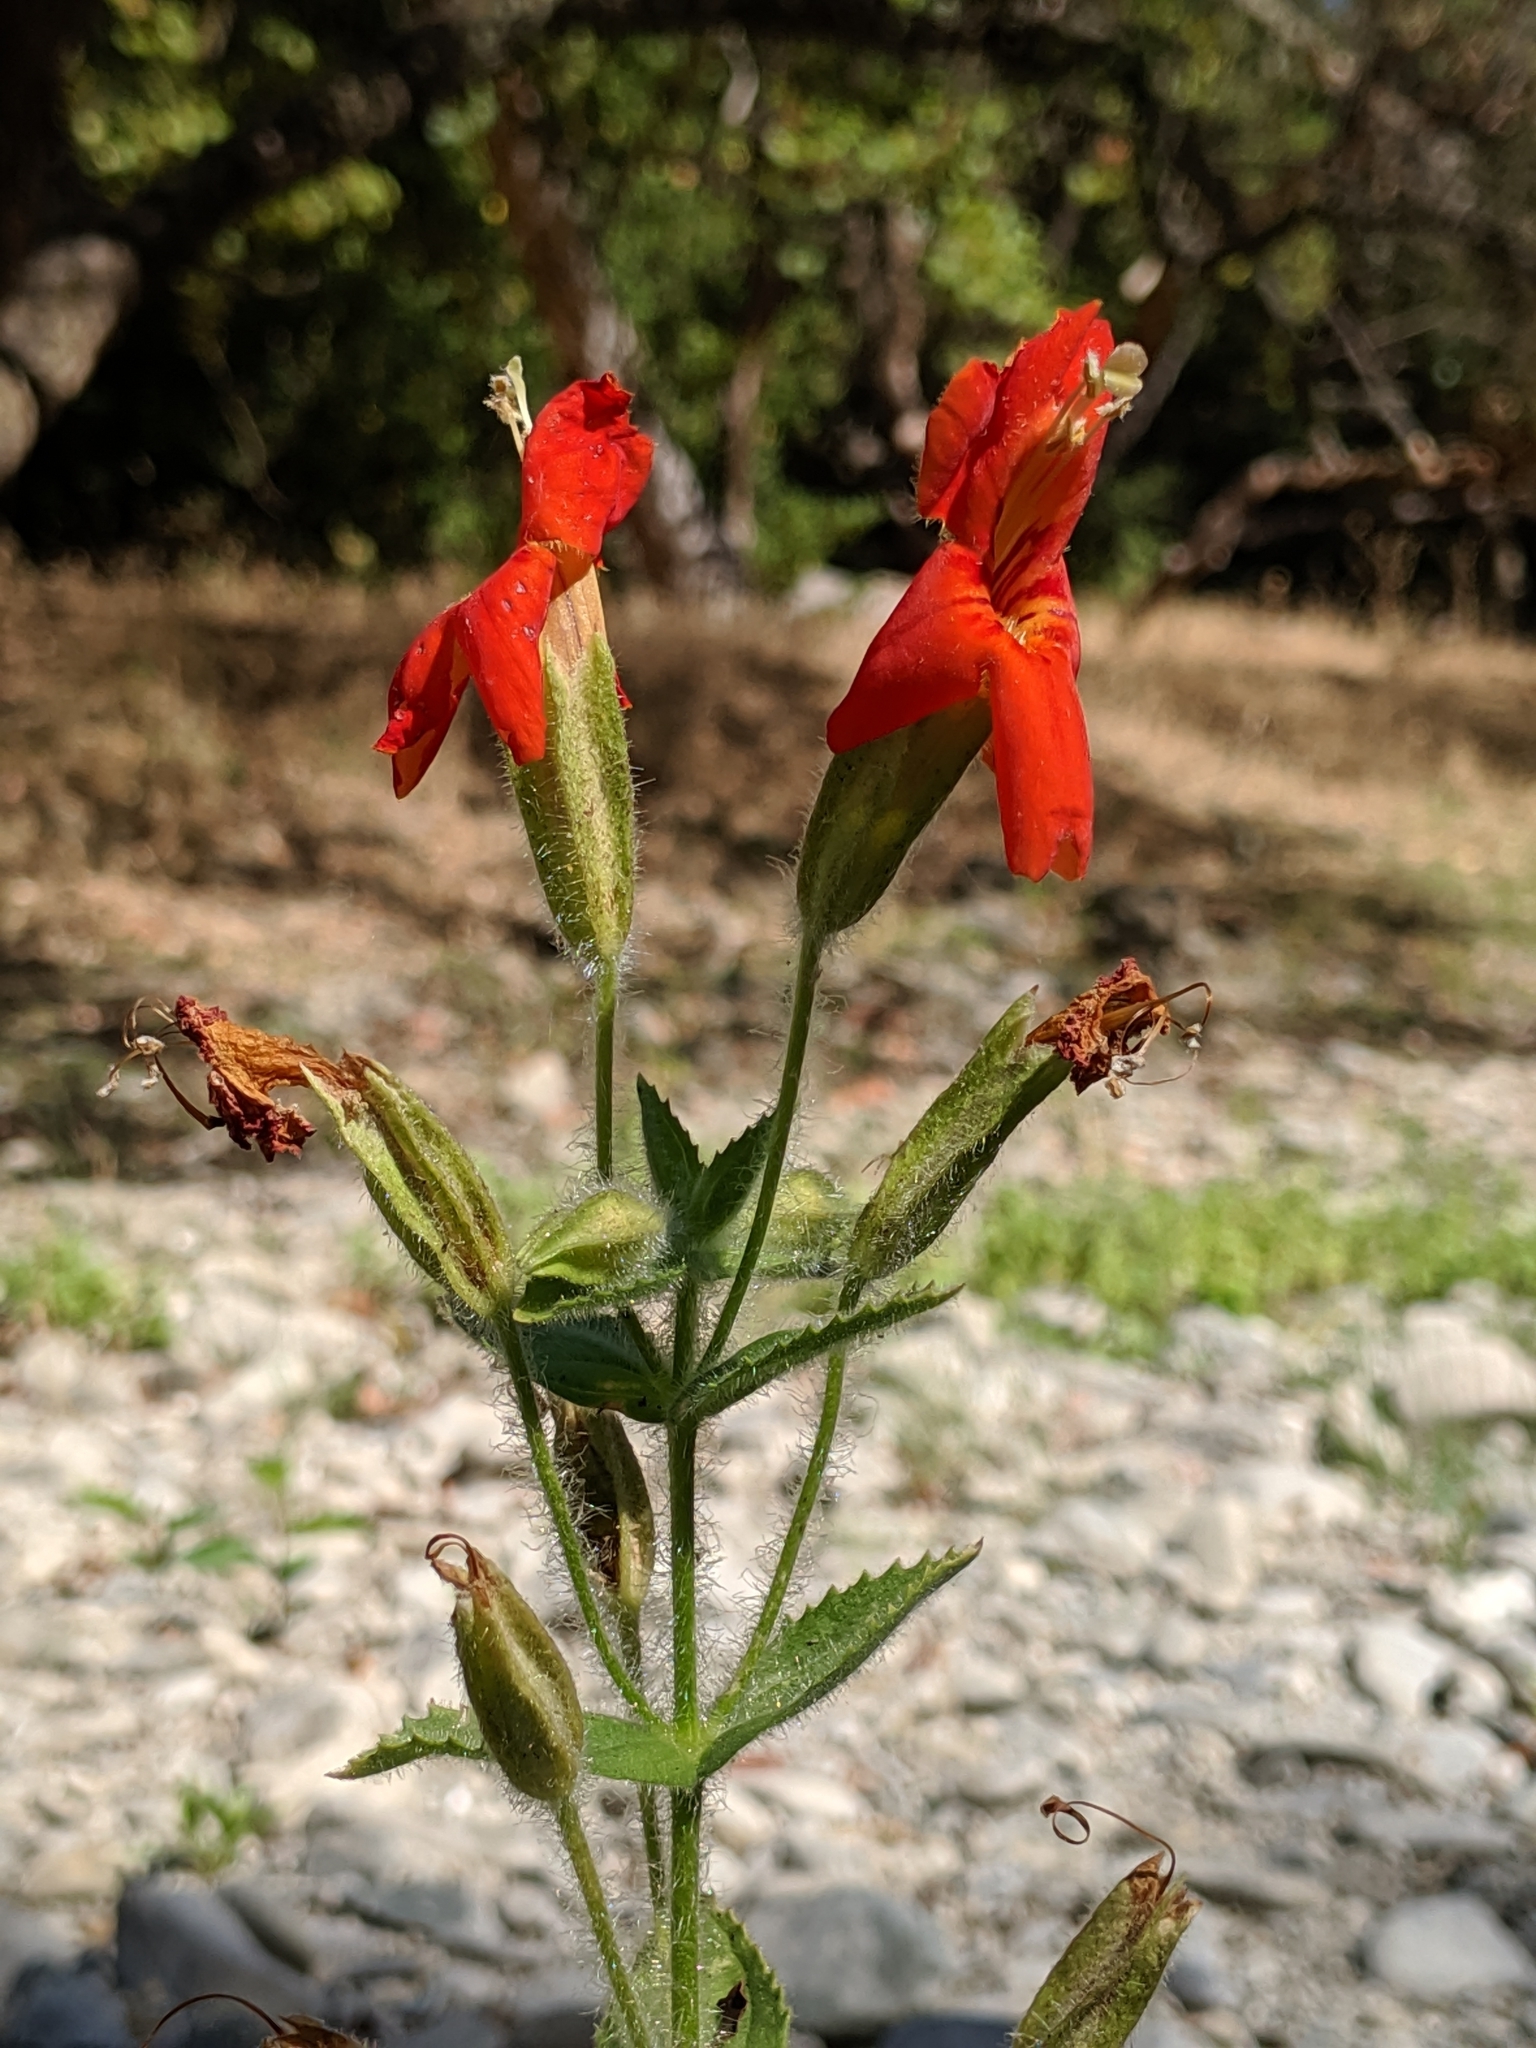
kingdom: Plantae
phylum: Tracheophyta
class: Magnoliopsida
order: Lamiales
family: Phrymaceae
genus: Erythranthe
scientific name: Erythranthe cardinalis
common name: Scarlet monkey-flower
